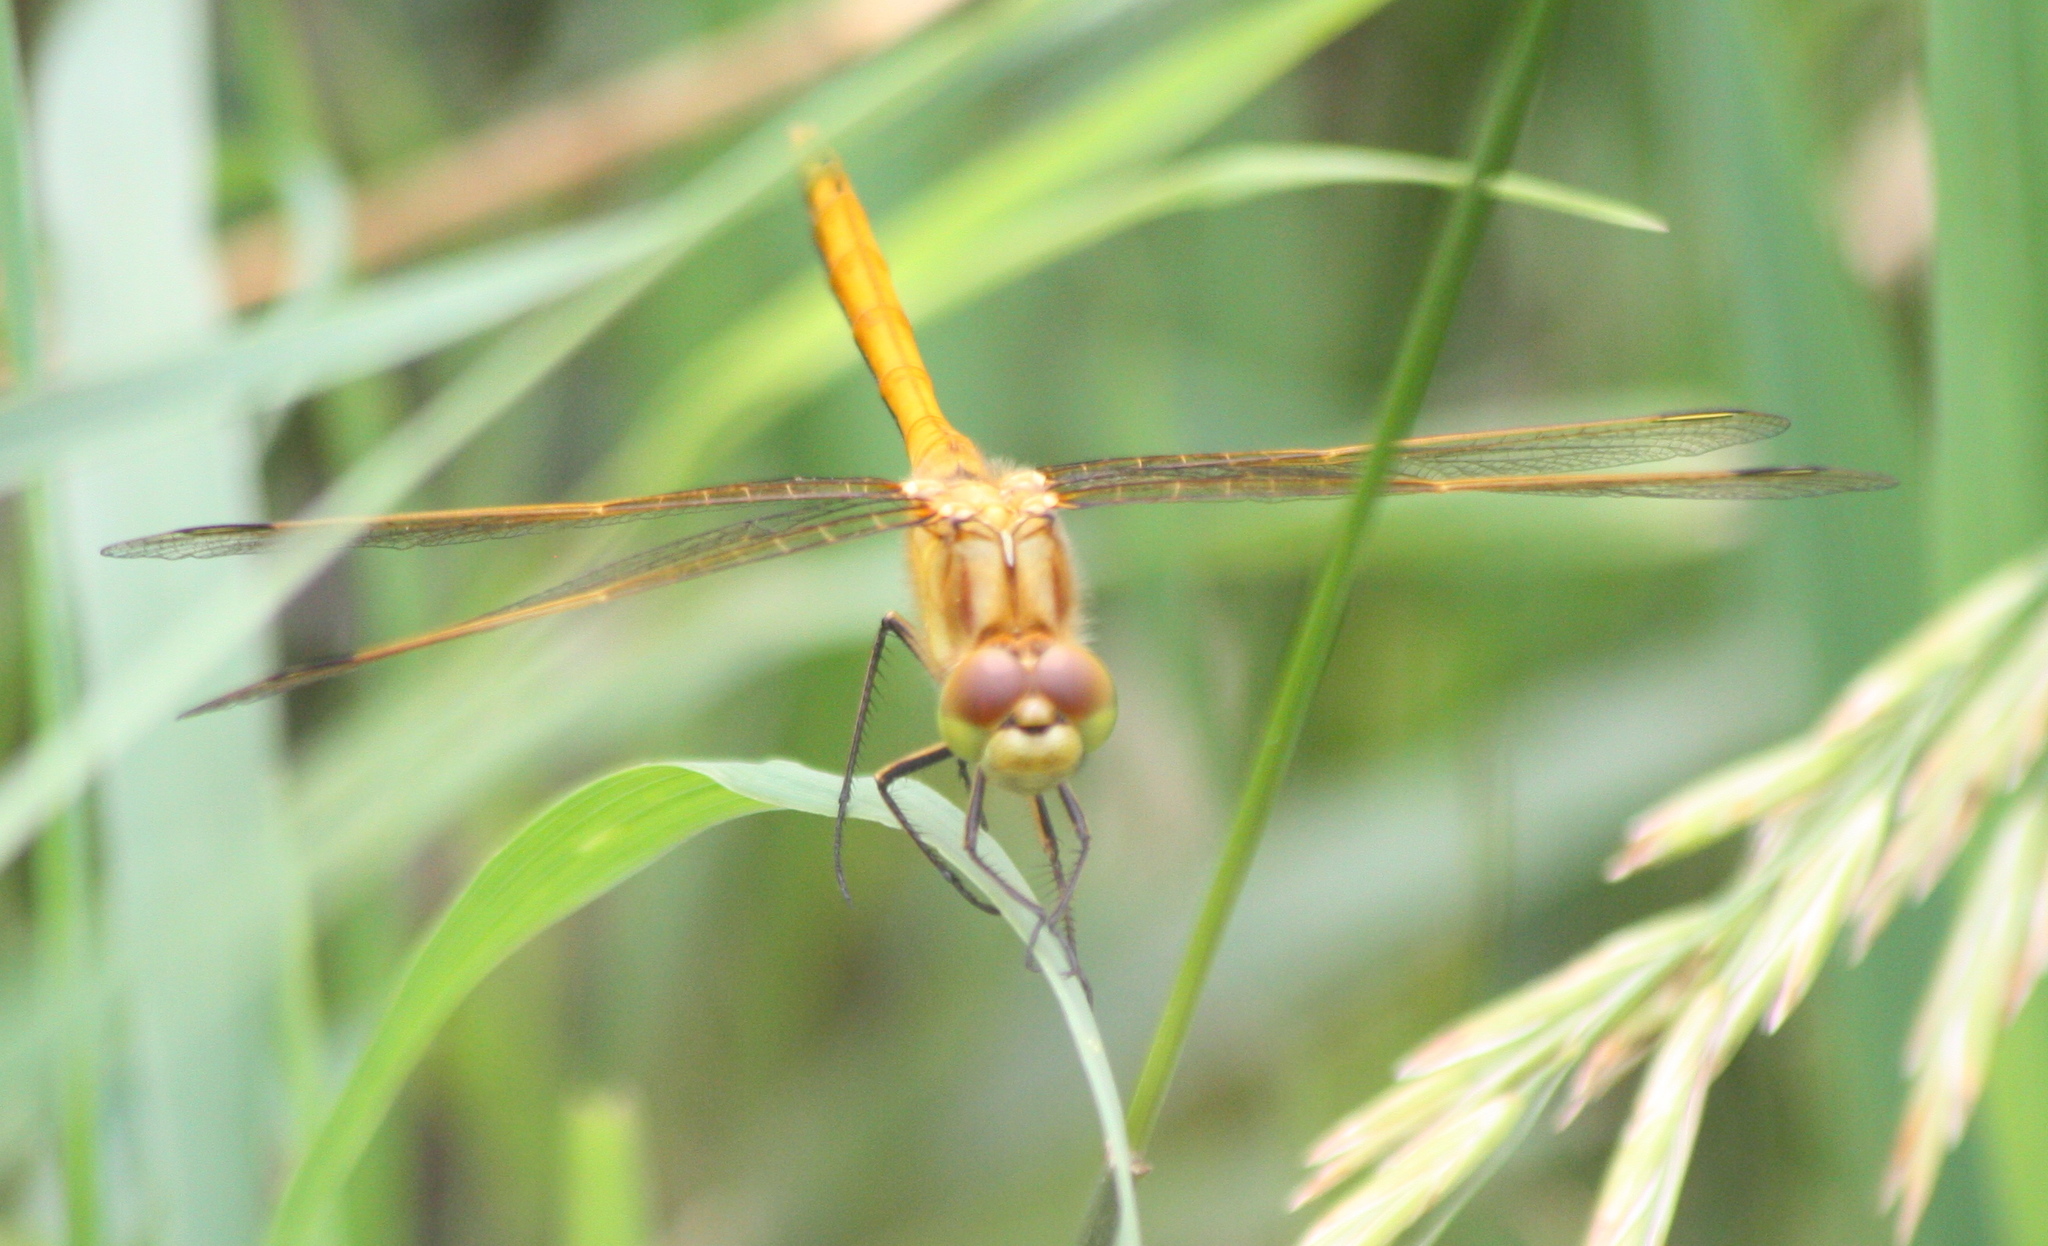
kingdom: Animalia
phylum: Arthropoda
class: Insecta
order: Odonata
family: Libellulidae
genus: Sympetrum
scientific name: Sympetrum costiferum
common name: Saffron-winged meadowhawk
